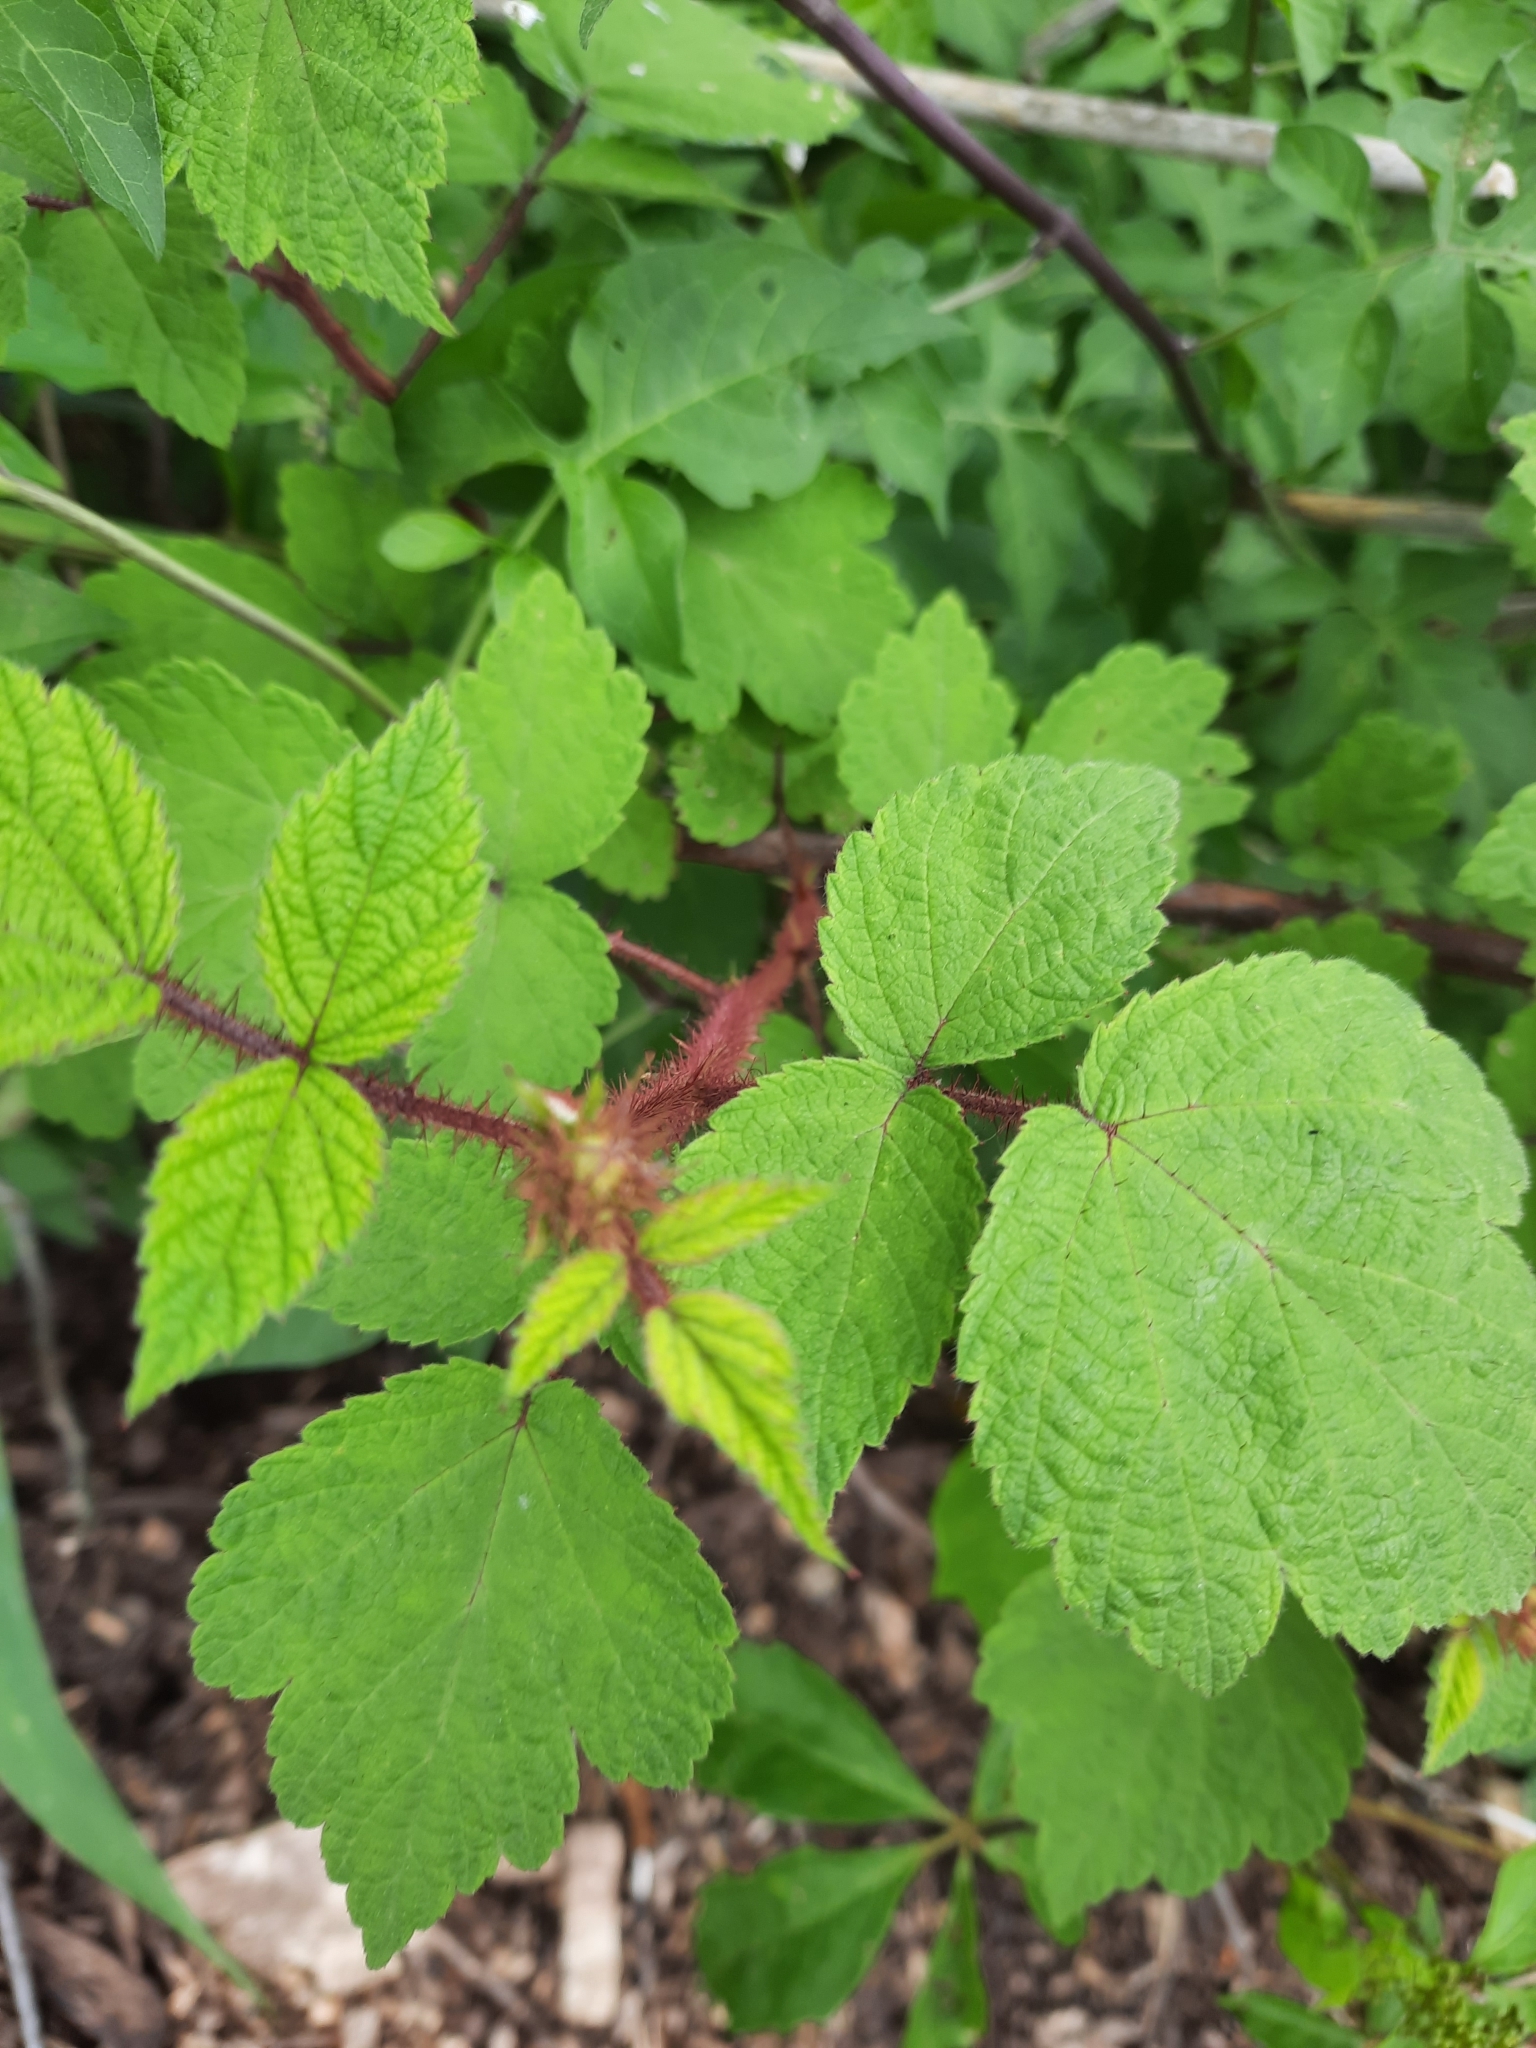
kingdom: Plantae
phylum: Tracheophyta
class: Magnoliopsida
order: Rosales
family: Rosaceae
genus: Rubus
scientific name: Rubus phoenicolasius
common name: Japanese wineberry
